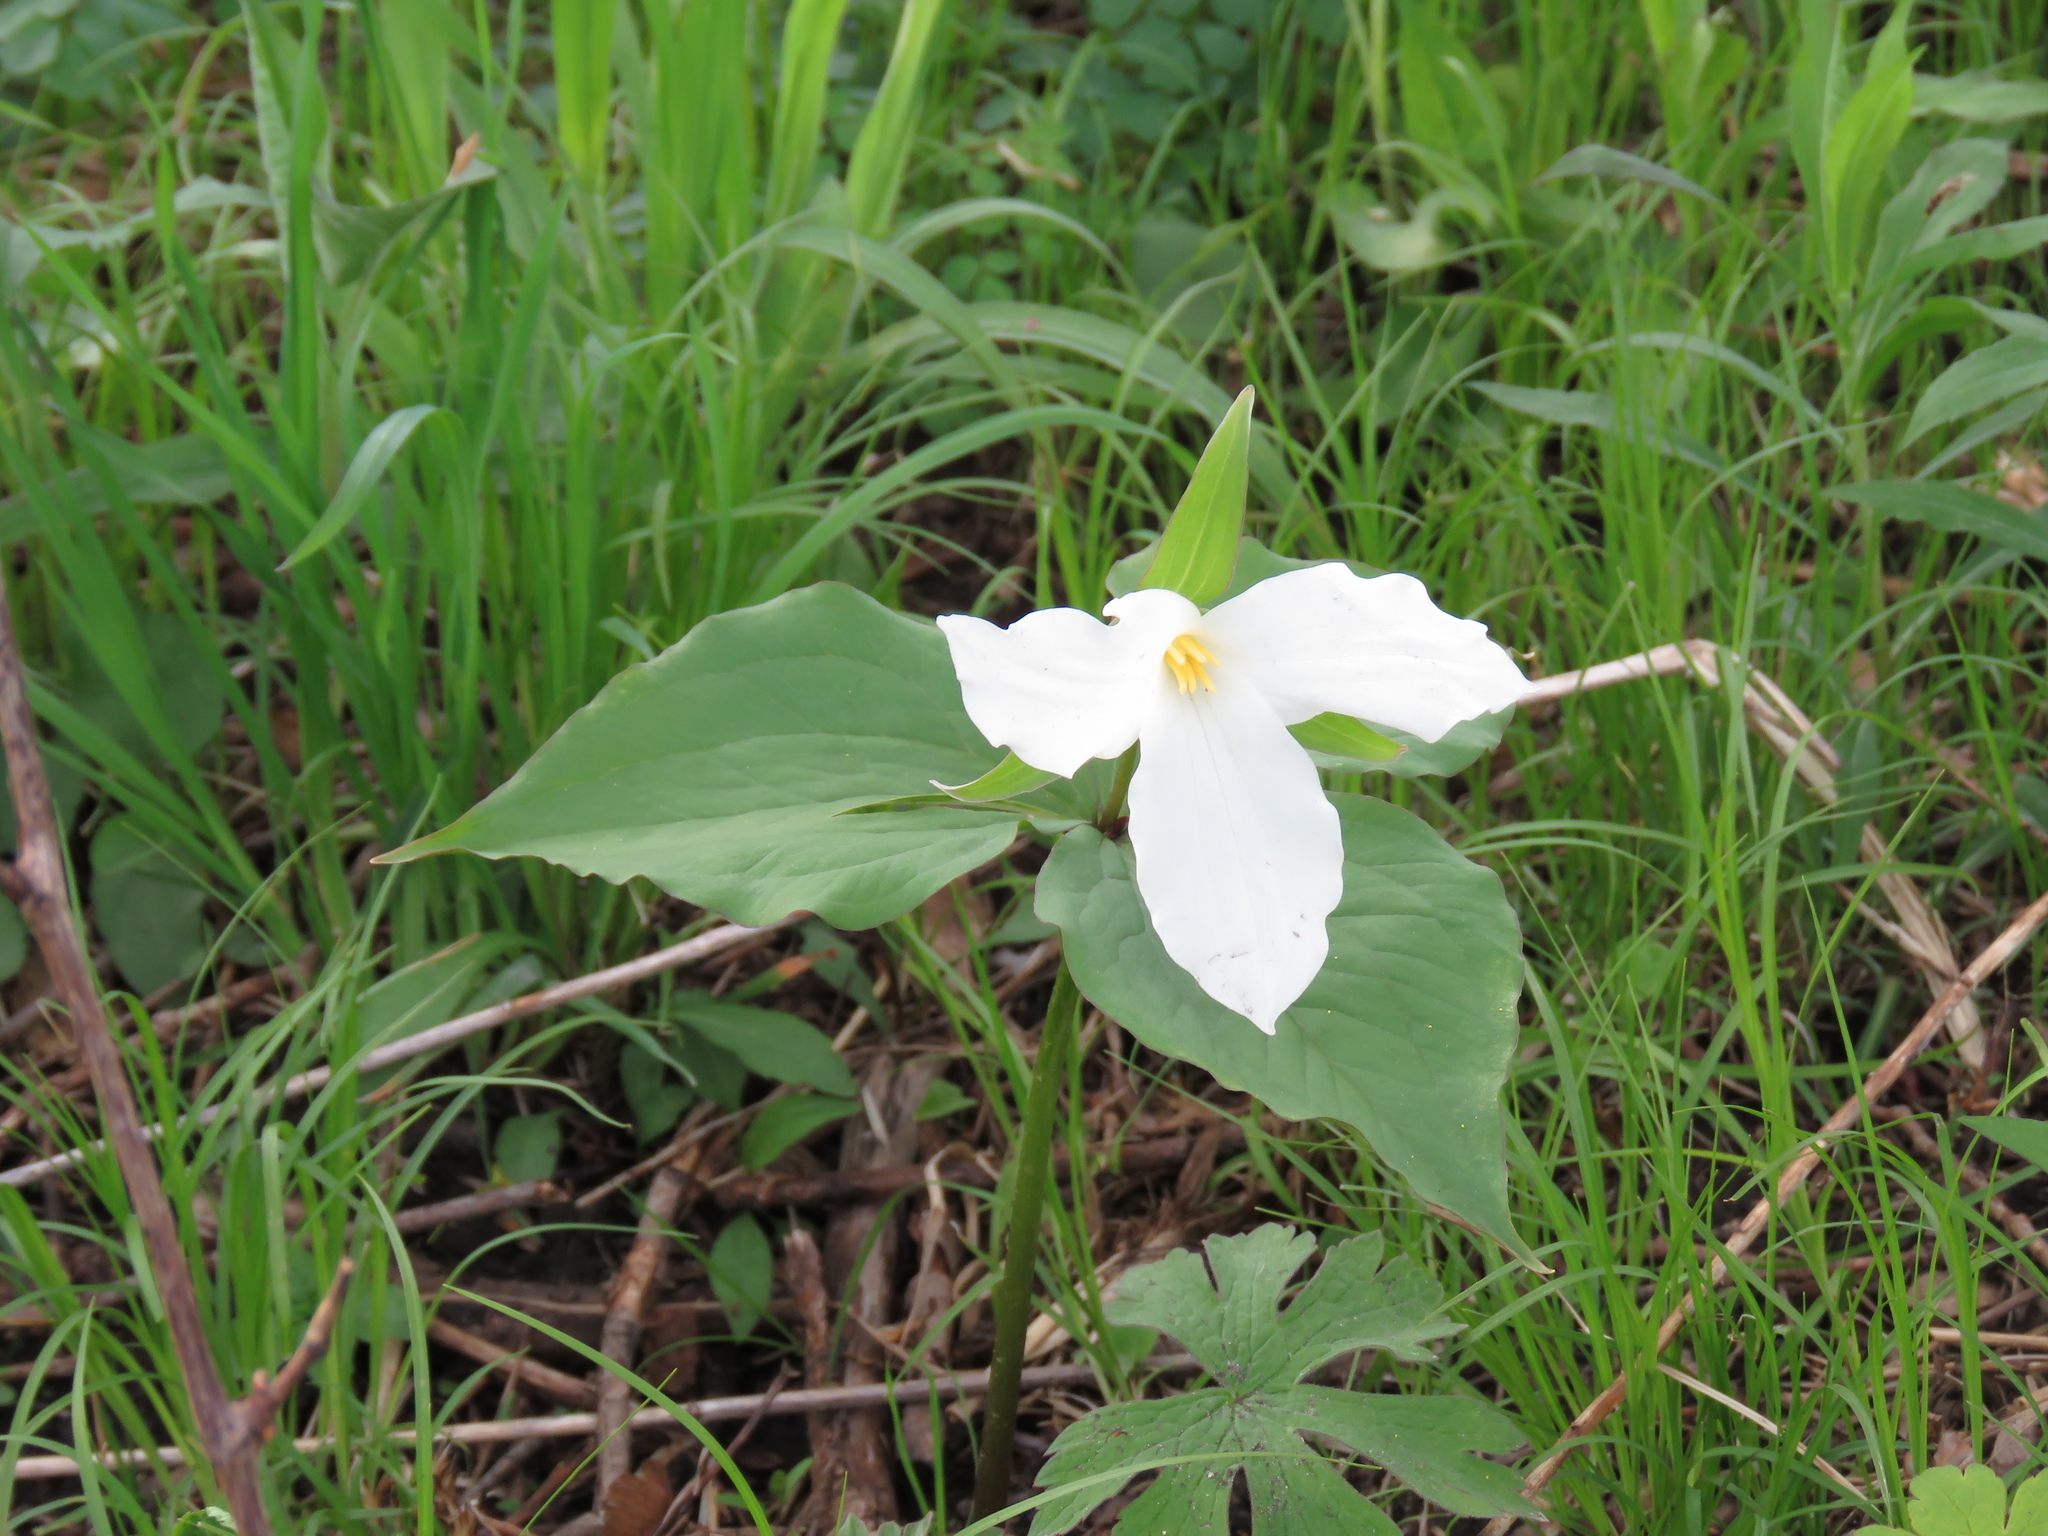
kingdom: Plantae
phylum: Tracheophyta
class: Liliopsida
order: Liliales
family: Melanthiaceae
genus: Trillium
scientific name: Trillium grandiflorum
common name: Great white trillium
